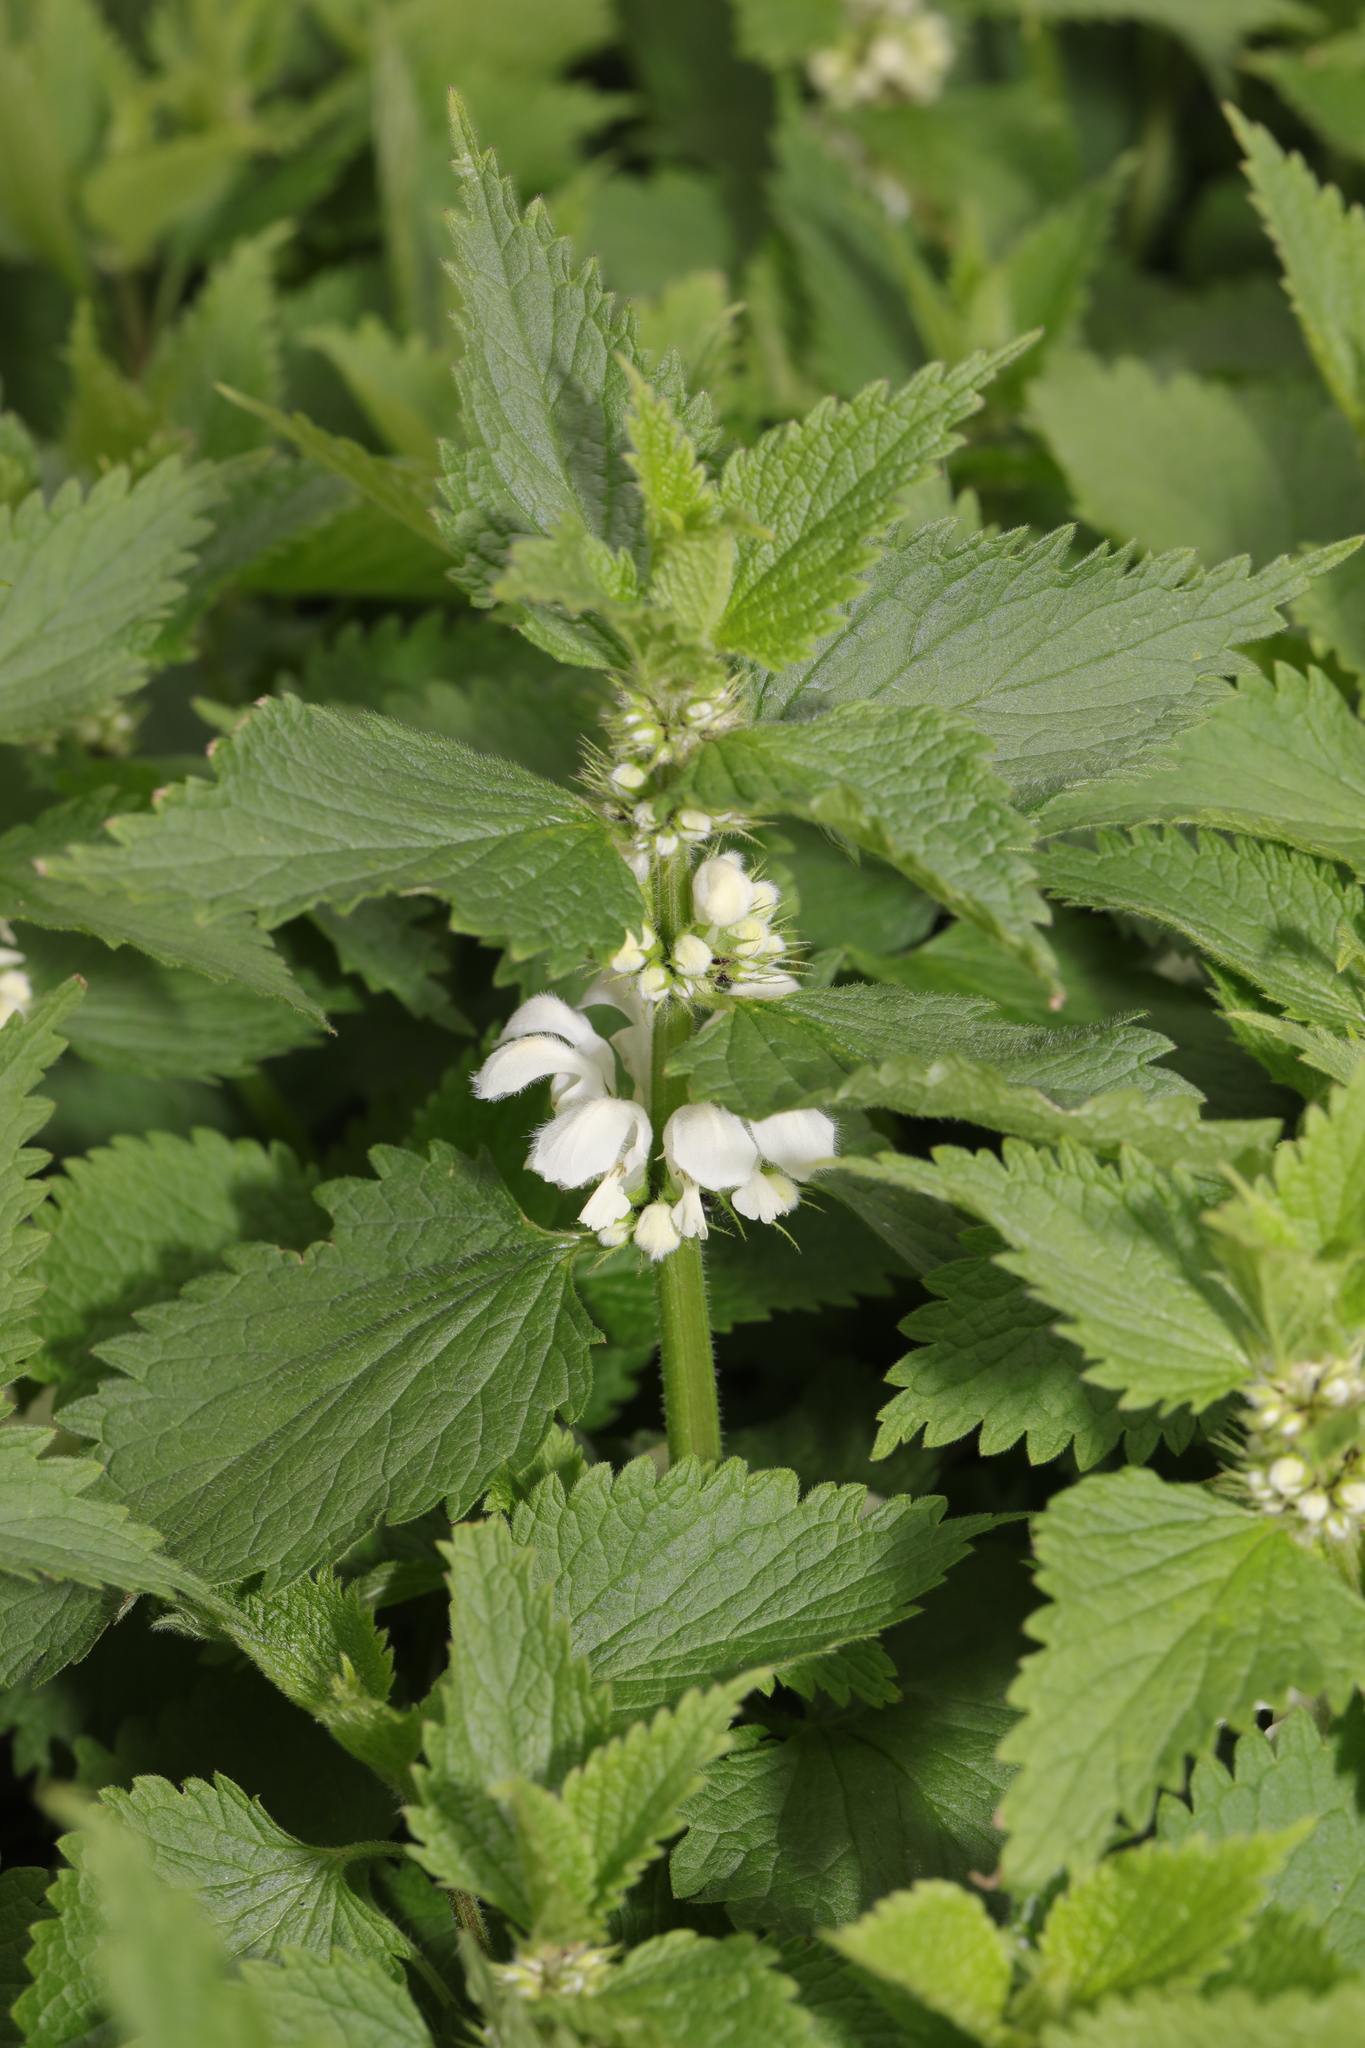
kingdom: Plantae
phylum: Tracheophyta
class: Magnoliopsida
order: Lamiales
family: Lamiaceae
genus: Lamium
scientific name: Lamium album
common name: White dead-nettle
